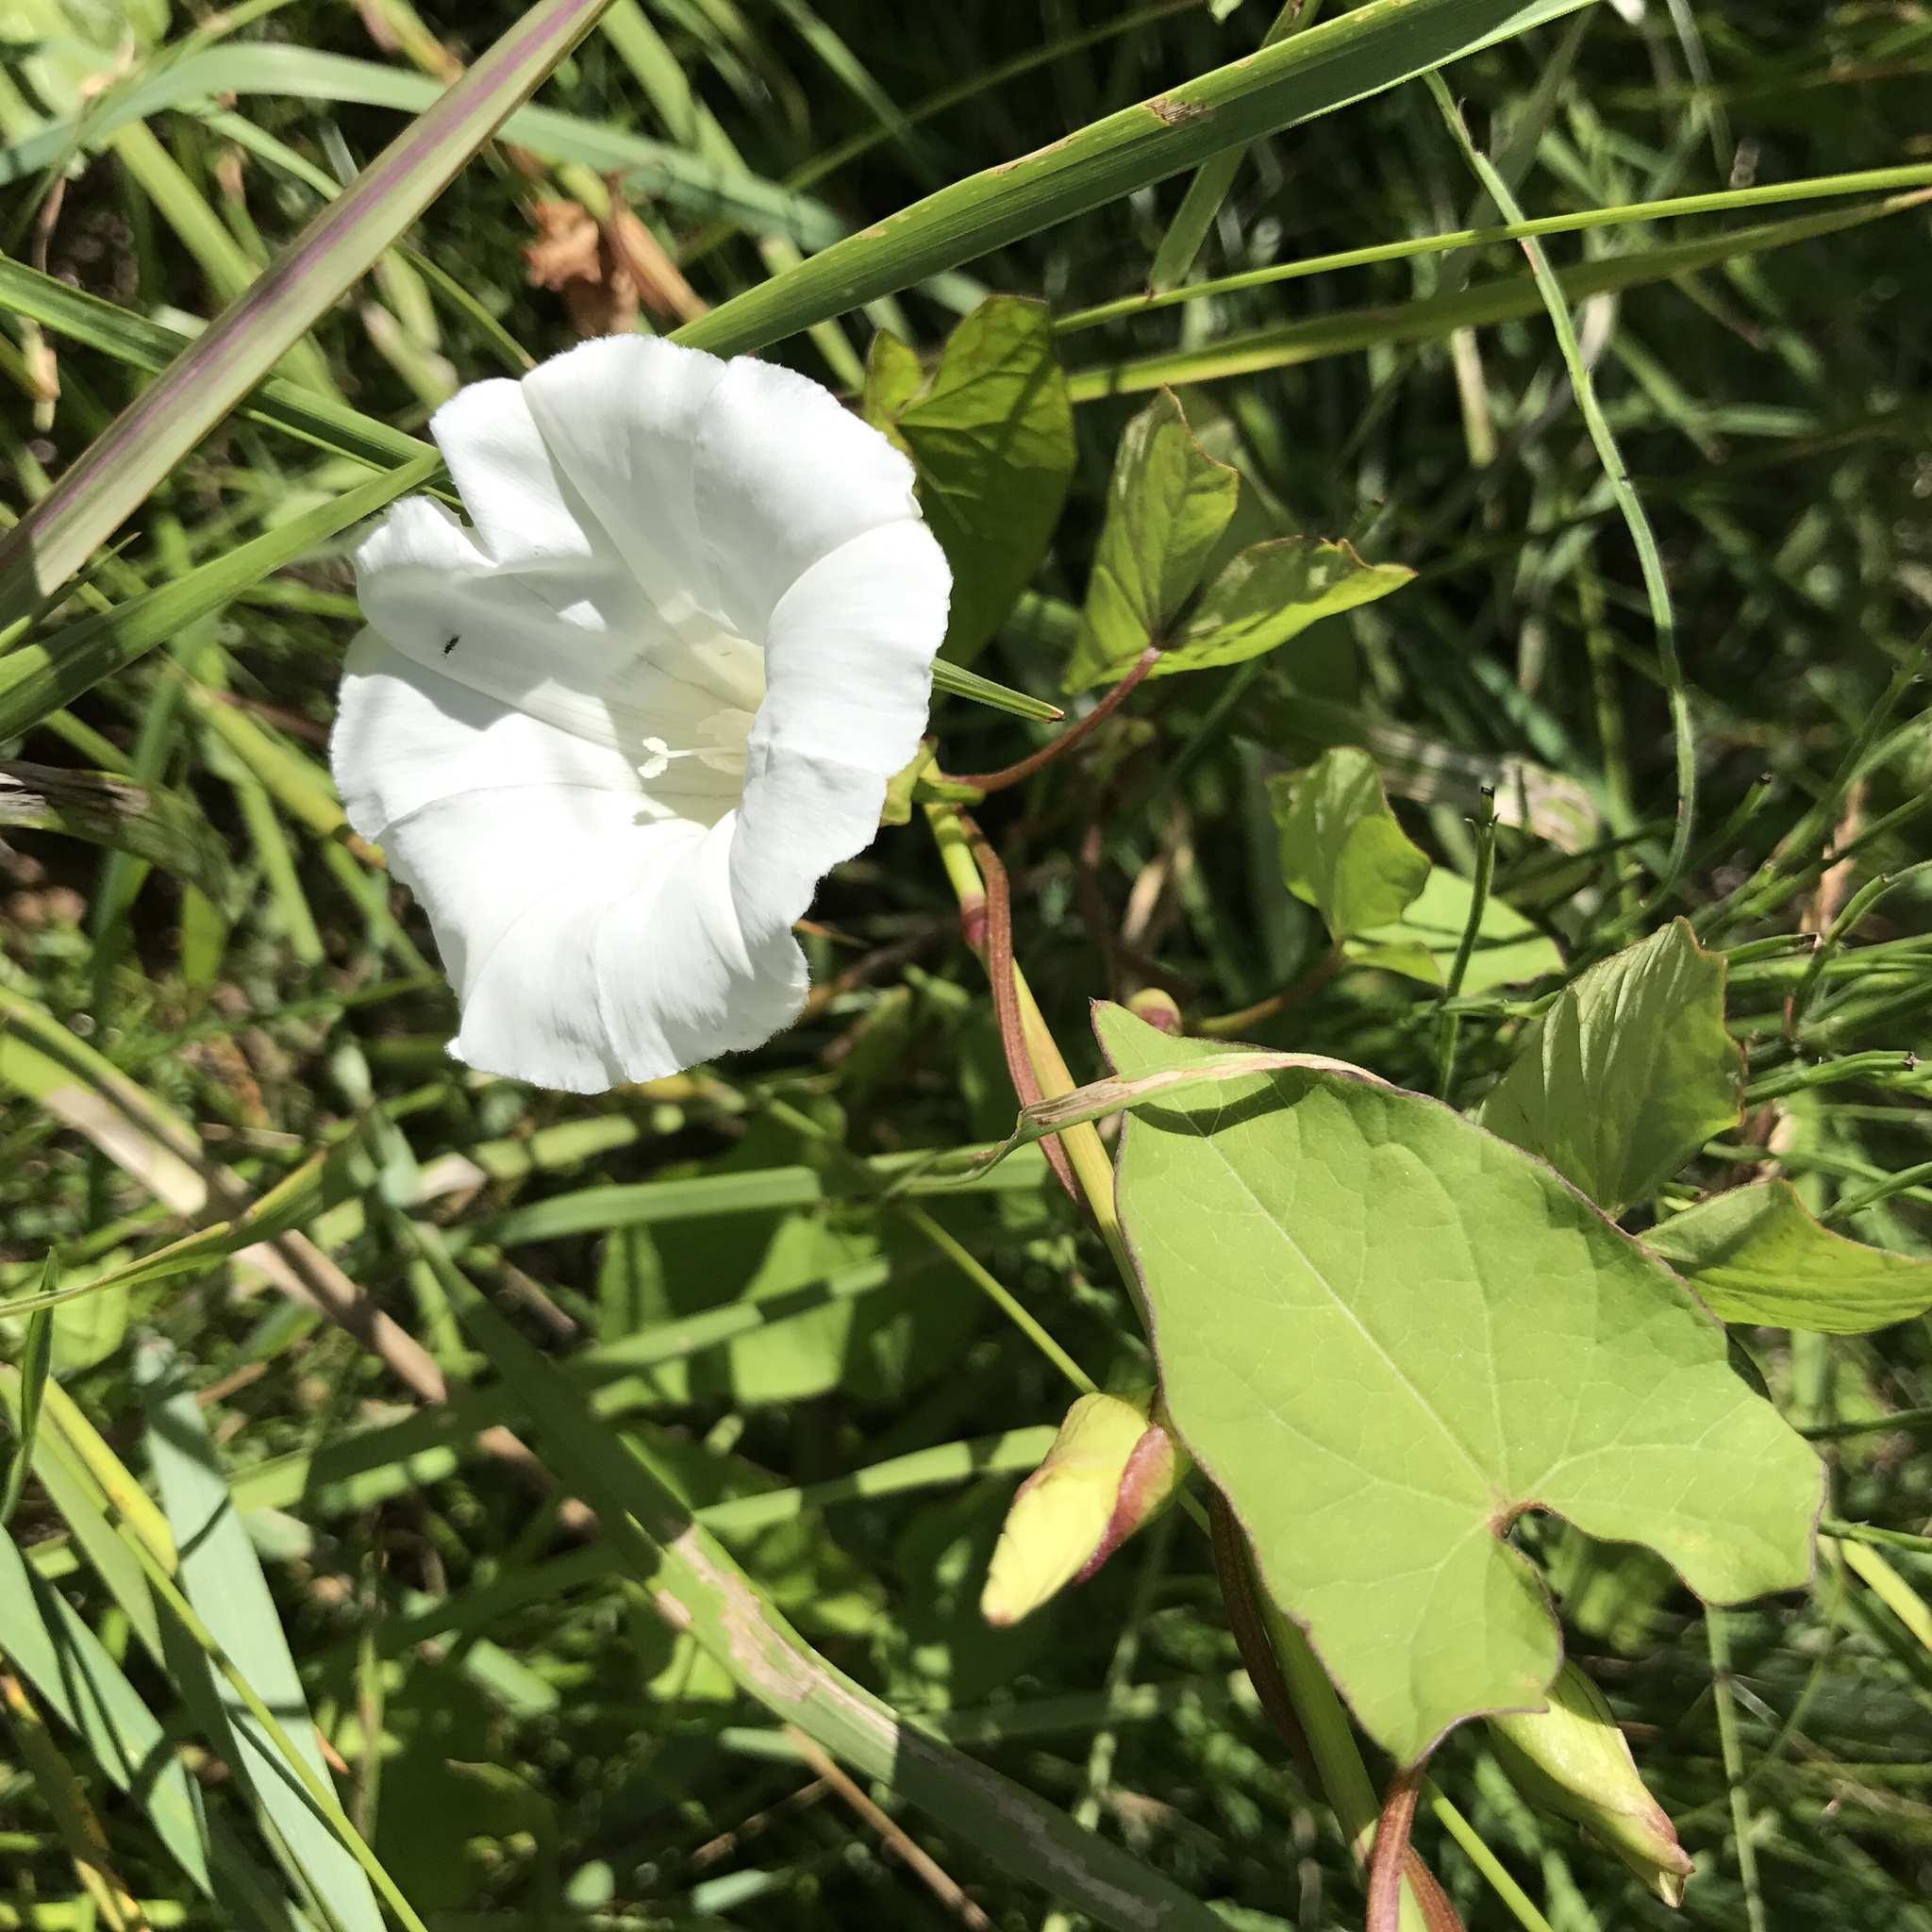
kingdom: Plantae
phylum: Tracheophyta
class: Magnoliopsida
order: Solanales
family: Convolvulaceae
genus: Calystegia
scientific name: Calystegia sepium
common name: Hedge bindweed
